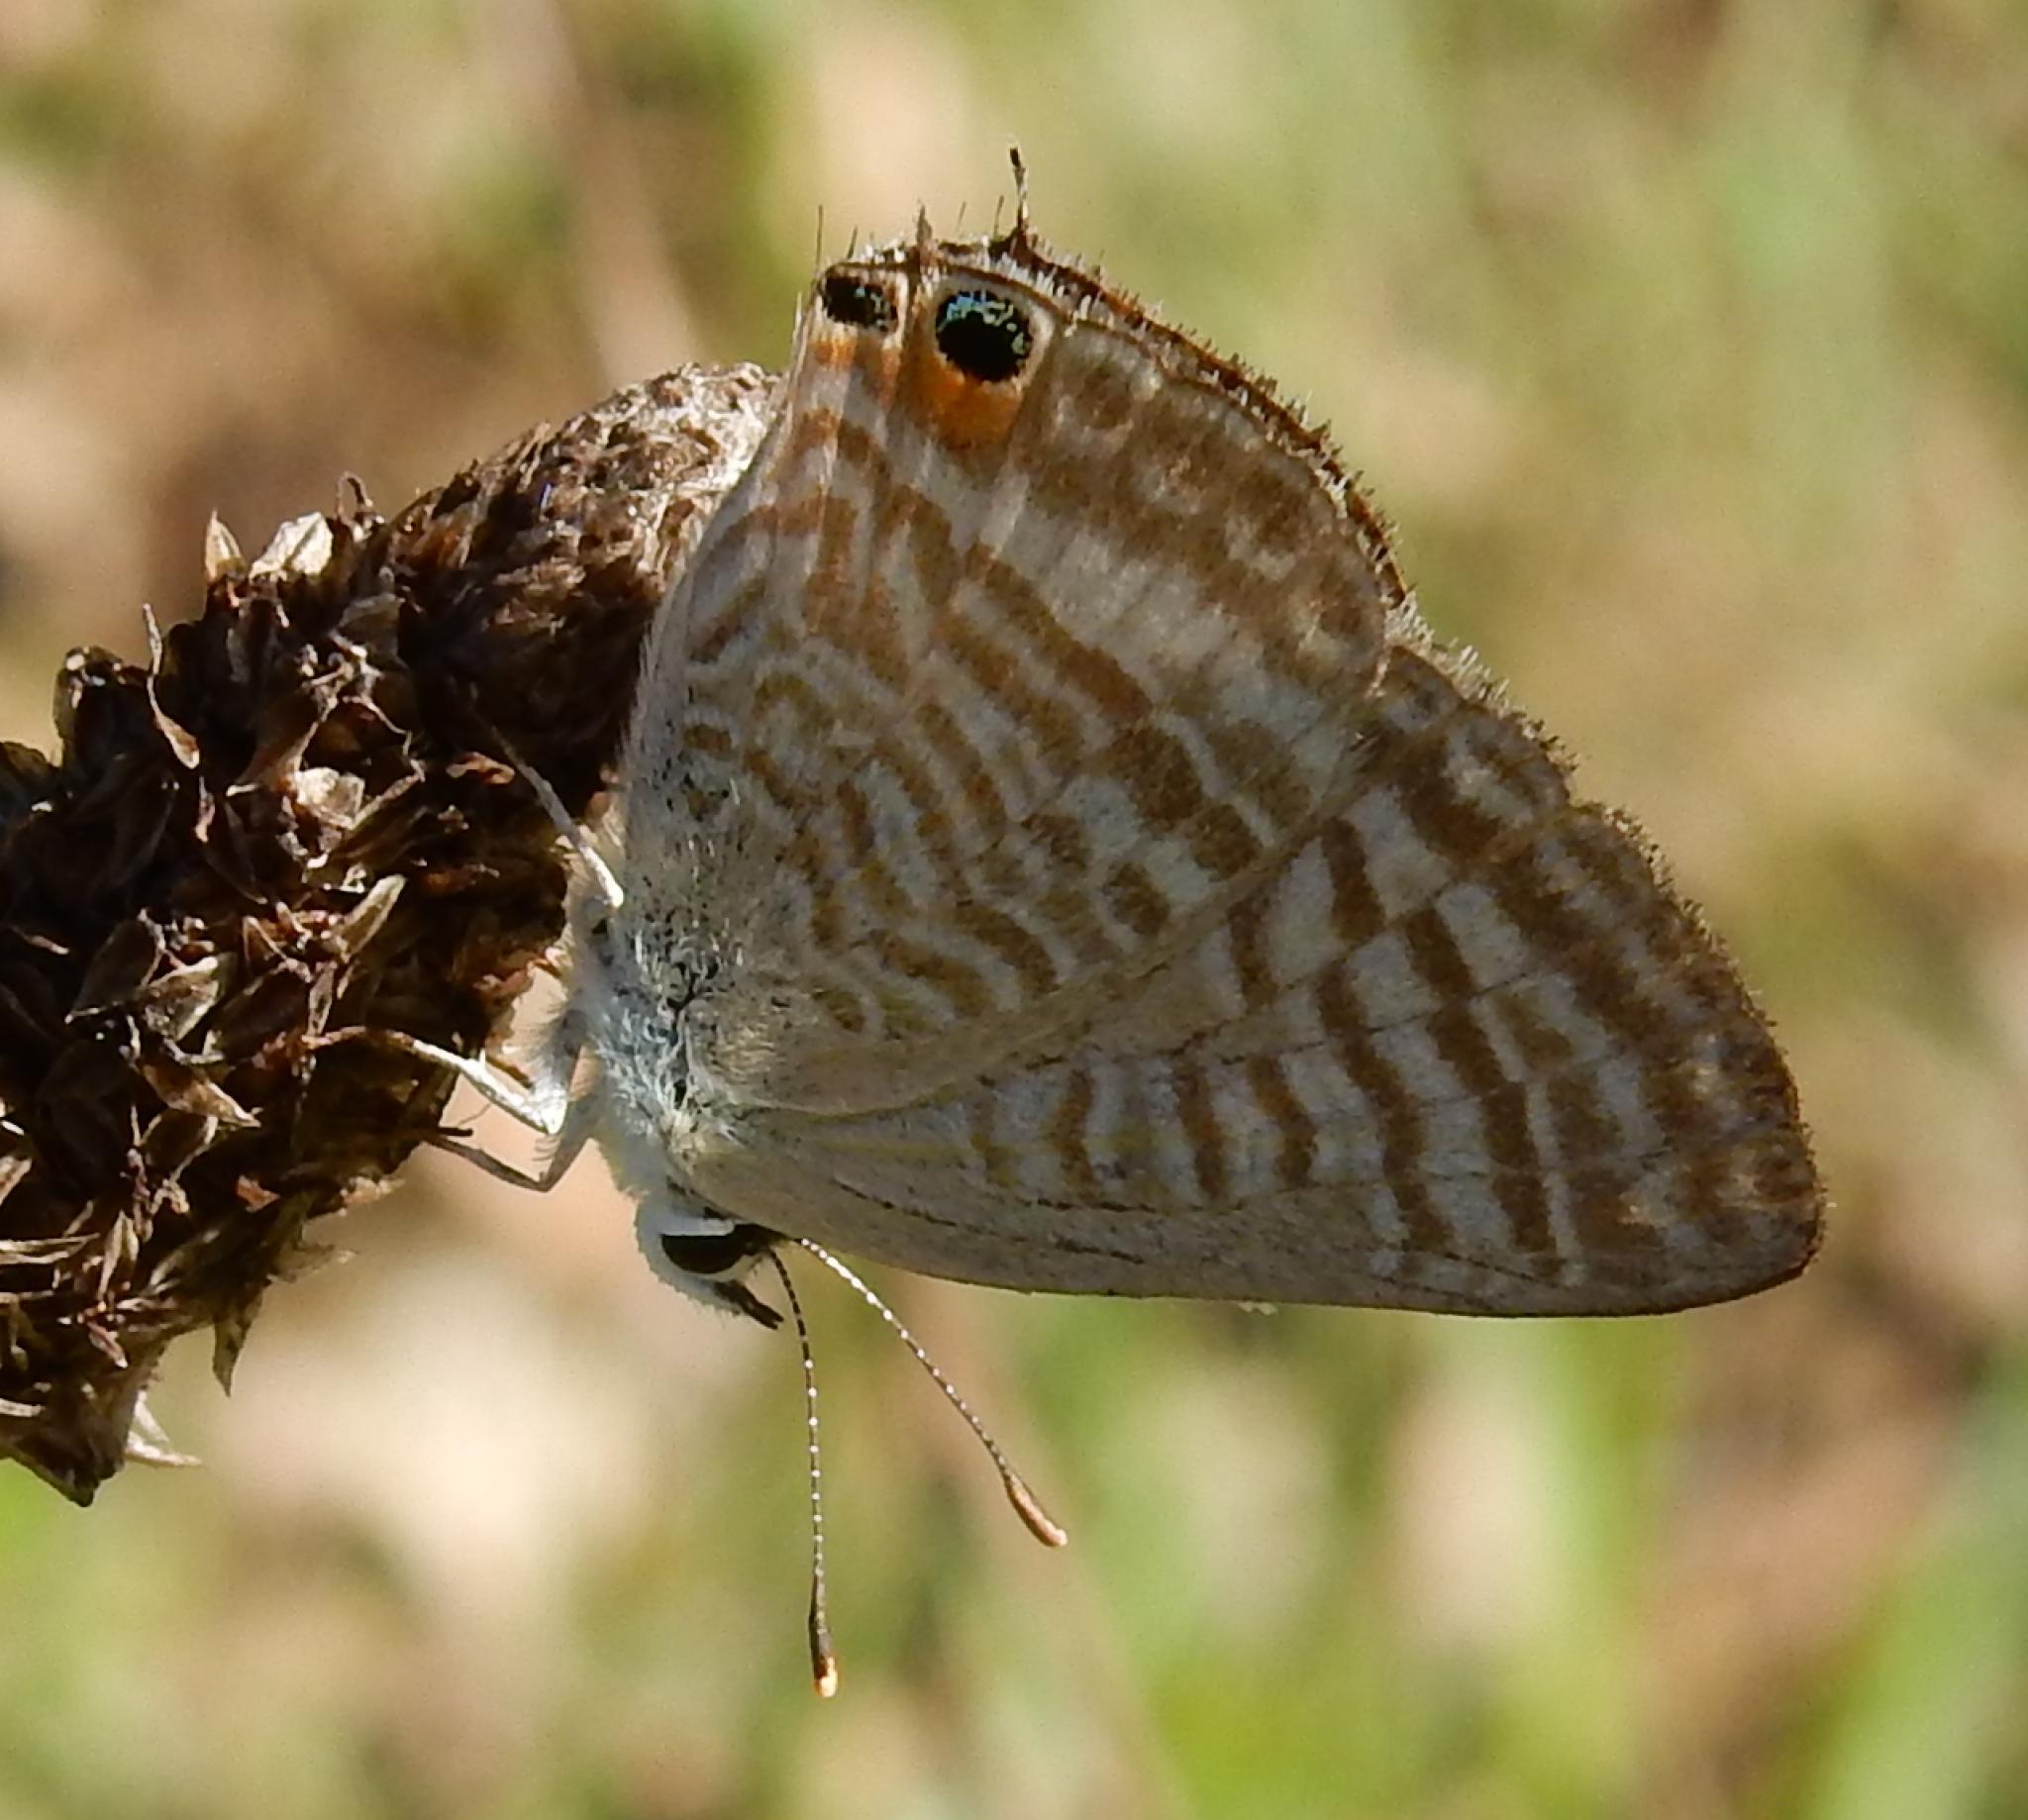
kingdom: Animalia
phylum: Arthropoda
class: Insecta
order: Lepidoptera
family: Lycaenidae
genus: Lampides
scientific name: Lampides boeticus
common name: Long-tailed blue
